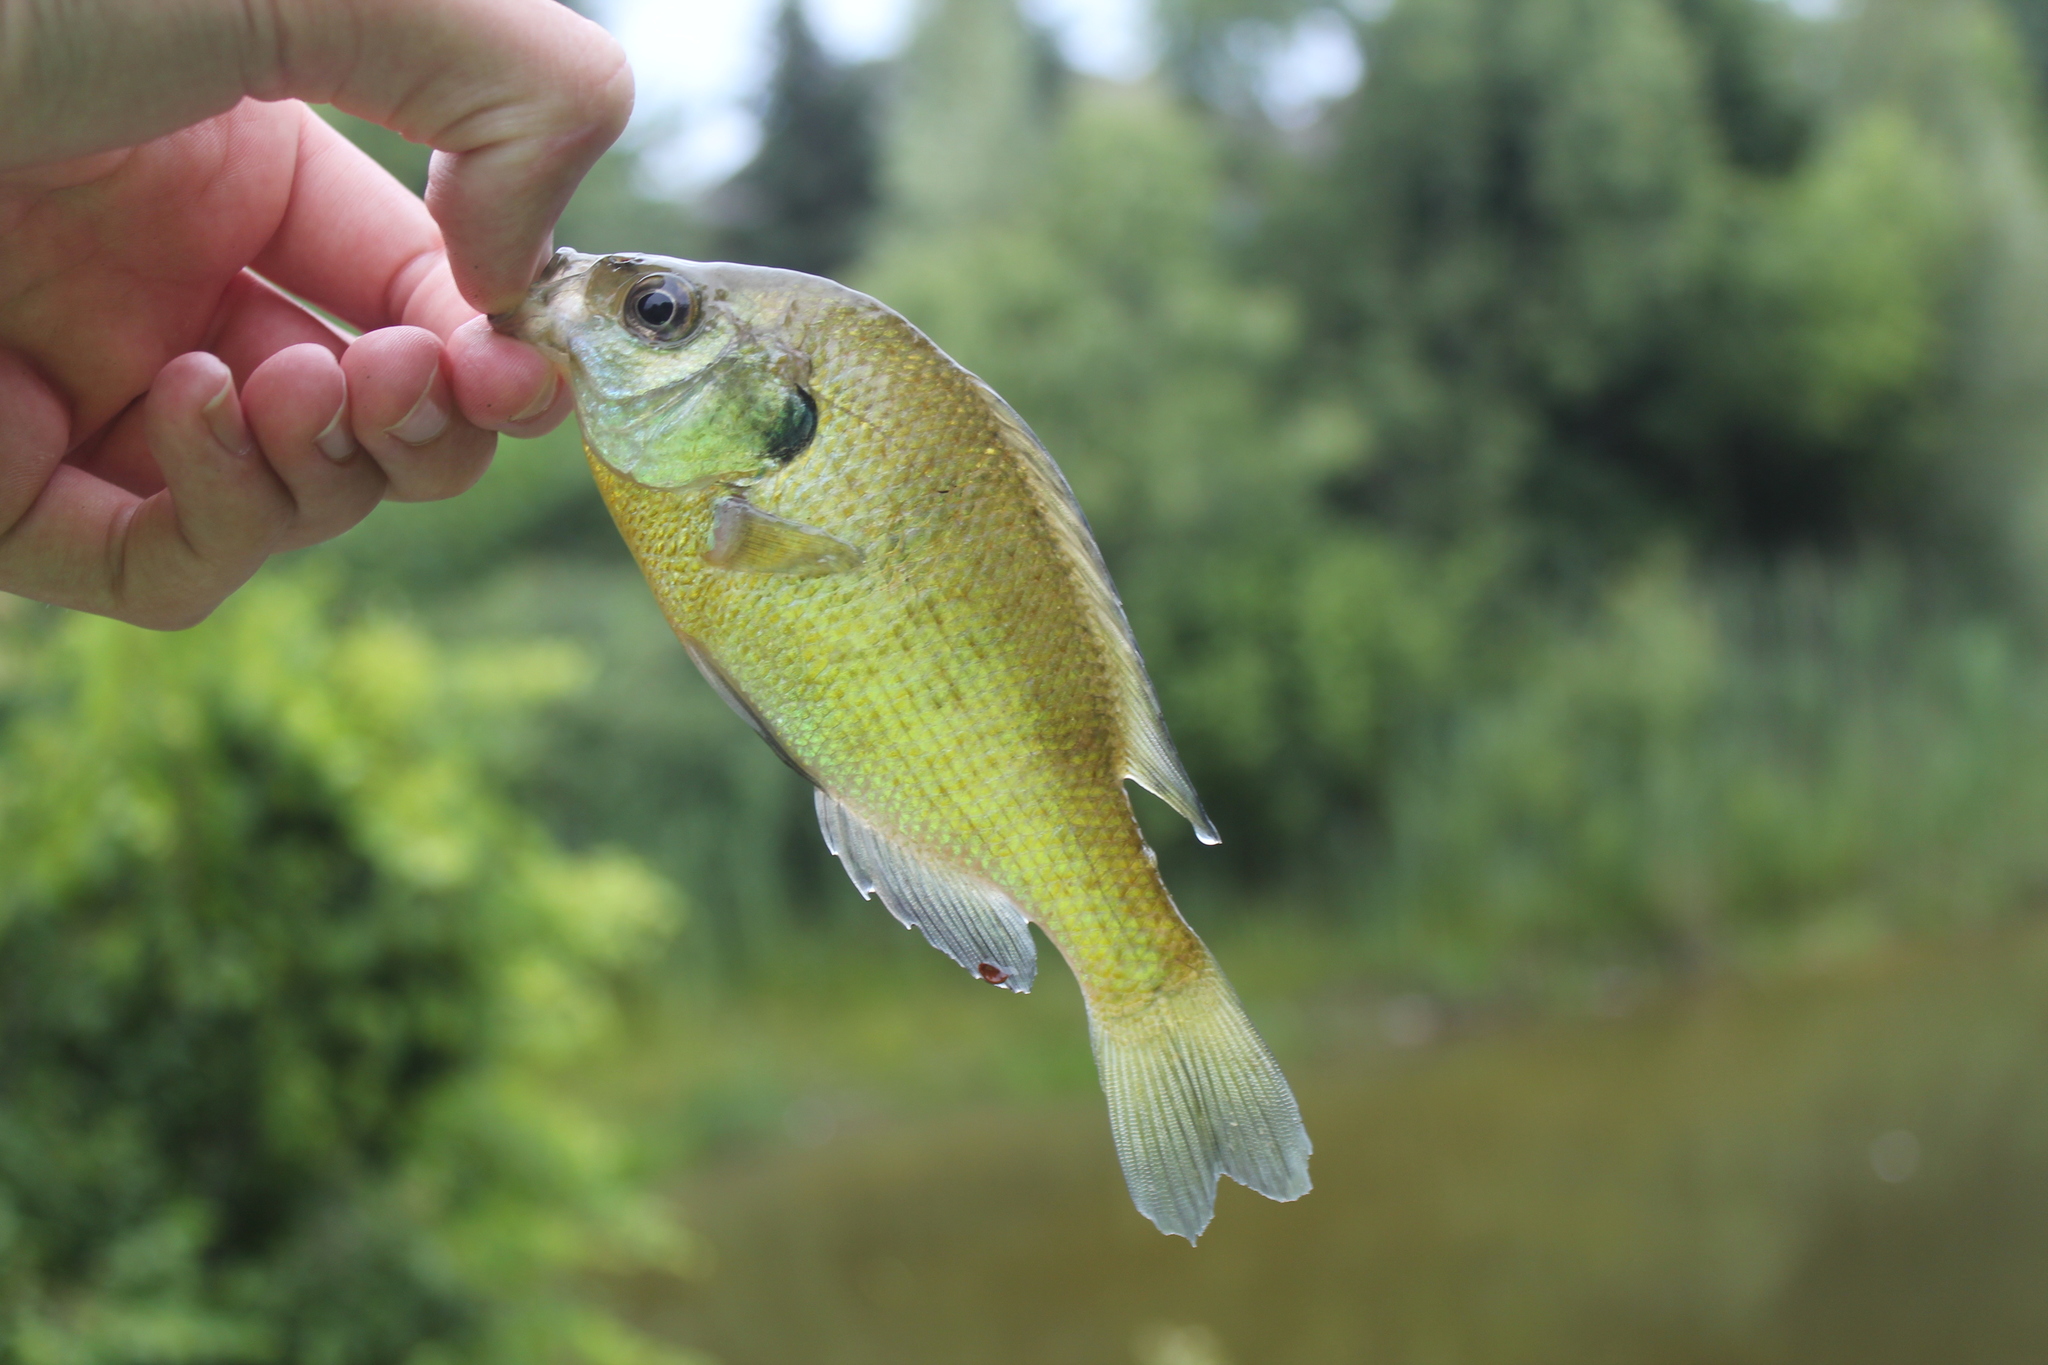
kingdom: Animalia
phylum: Chordata
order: Perciformes
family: Centrarchidae
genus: Lepomis
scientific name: Lepomis macrochirus
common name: Bluegill
